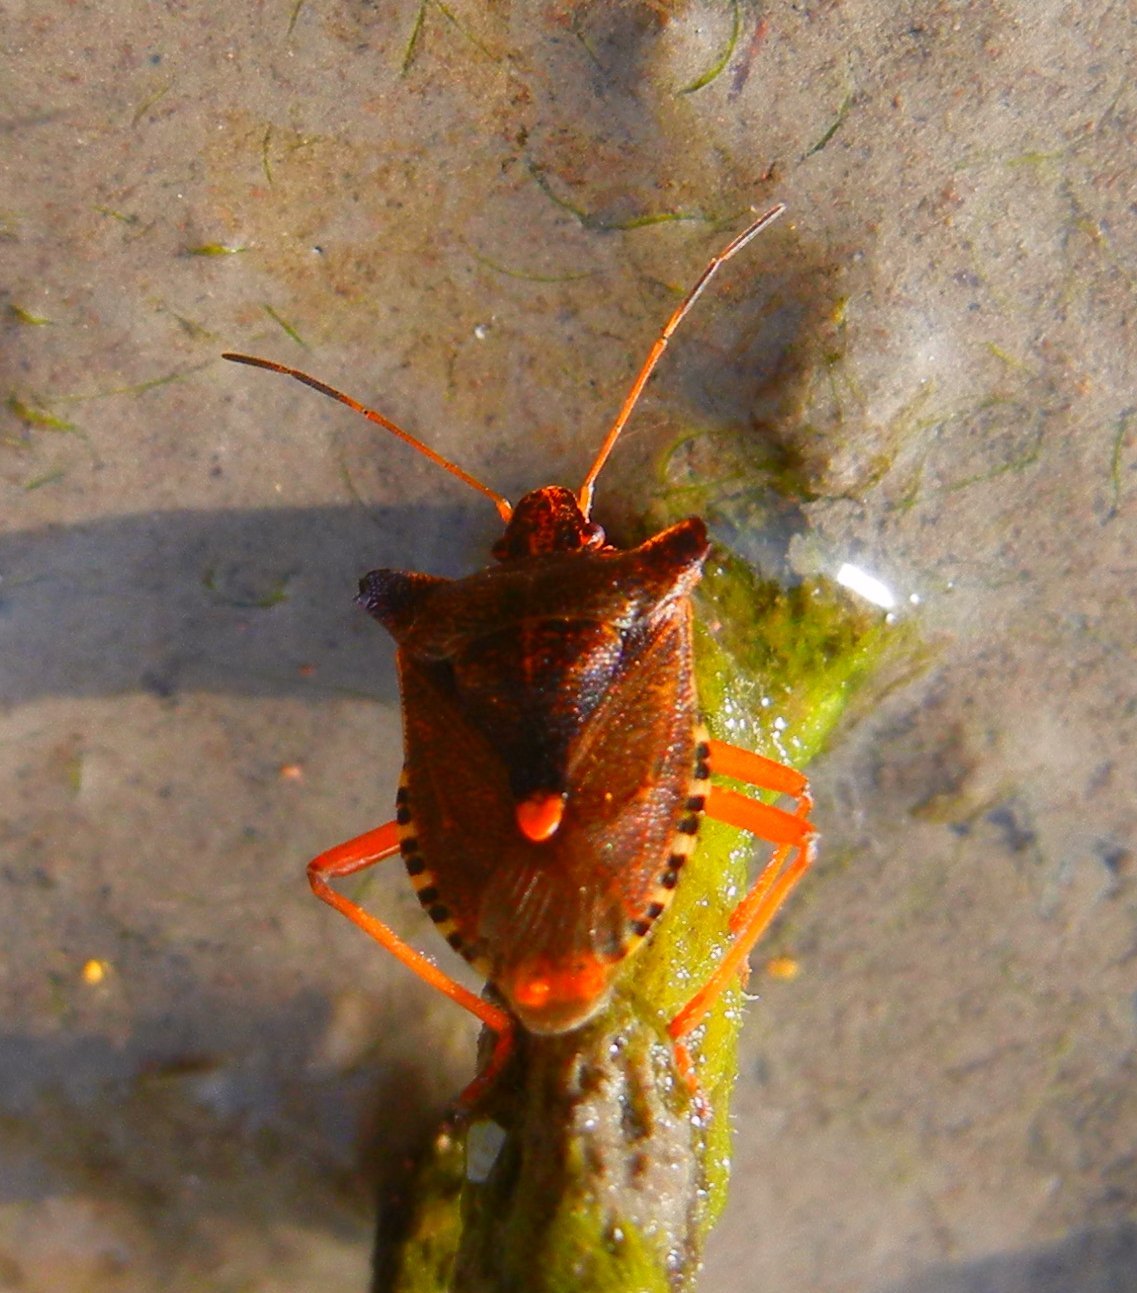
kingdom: Animalia
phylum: Arthropoda
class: Insecta
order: Hemiptera
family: Pentatomidae
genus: Pentatoma
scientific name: Pentatoma rufipes
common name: Forest bug
